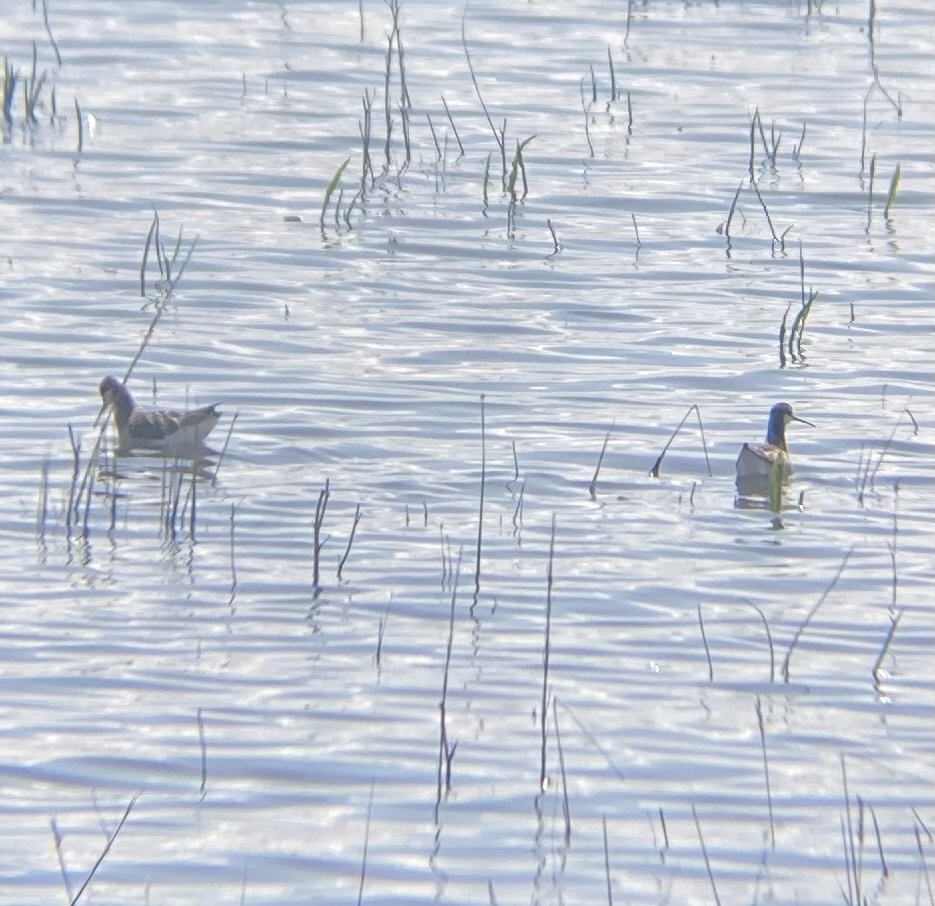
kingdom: Animalia
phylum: Chordata
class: Aves
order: Charadriiformes
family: Scolopacidae
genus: Phalaropus
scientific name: Phalaropus tricolor
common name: Wilson's phalarope
